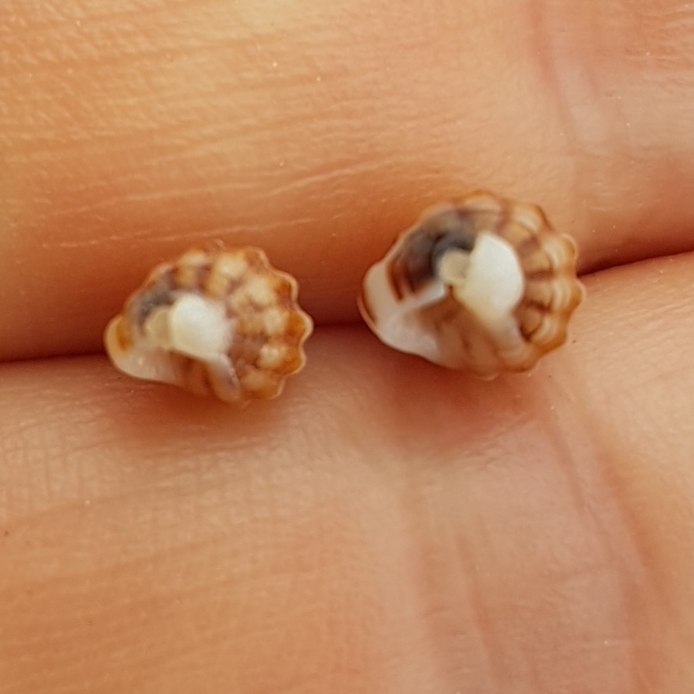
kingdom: Animalia
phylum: Mollusca
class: Gastropoda
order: Neogastropoda
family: Nassariidae
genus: Tritia
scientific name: Tritia incrassata
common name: Thick-lipped dog whelk
